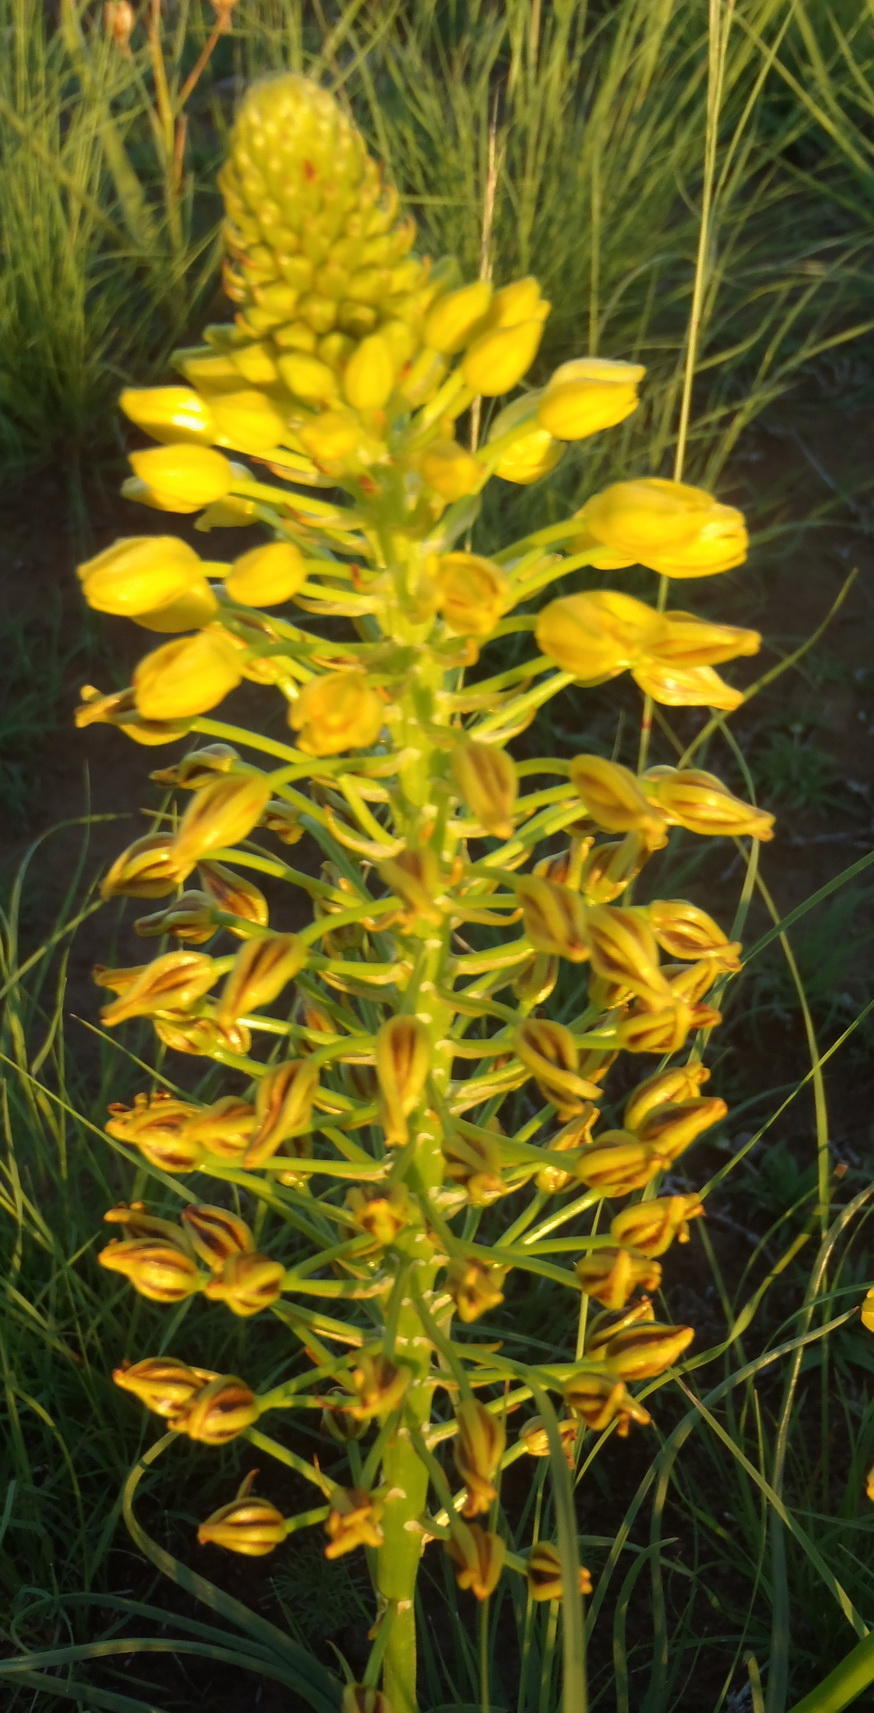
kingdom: Plantae
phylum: Tracheophyta
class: Liliopsida
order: Asparagales
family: Asphodelaceae
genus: Bulbine
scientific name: Bulbine abyssinica
